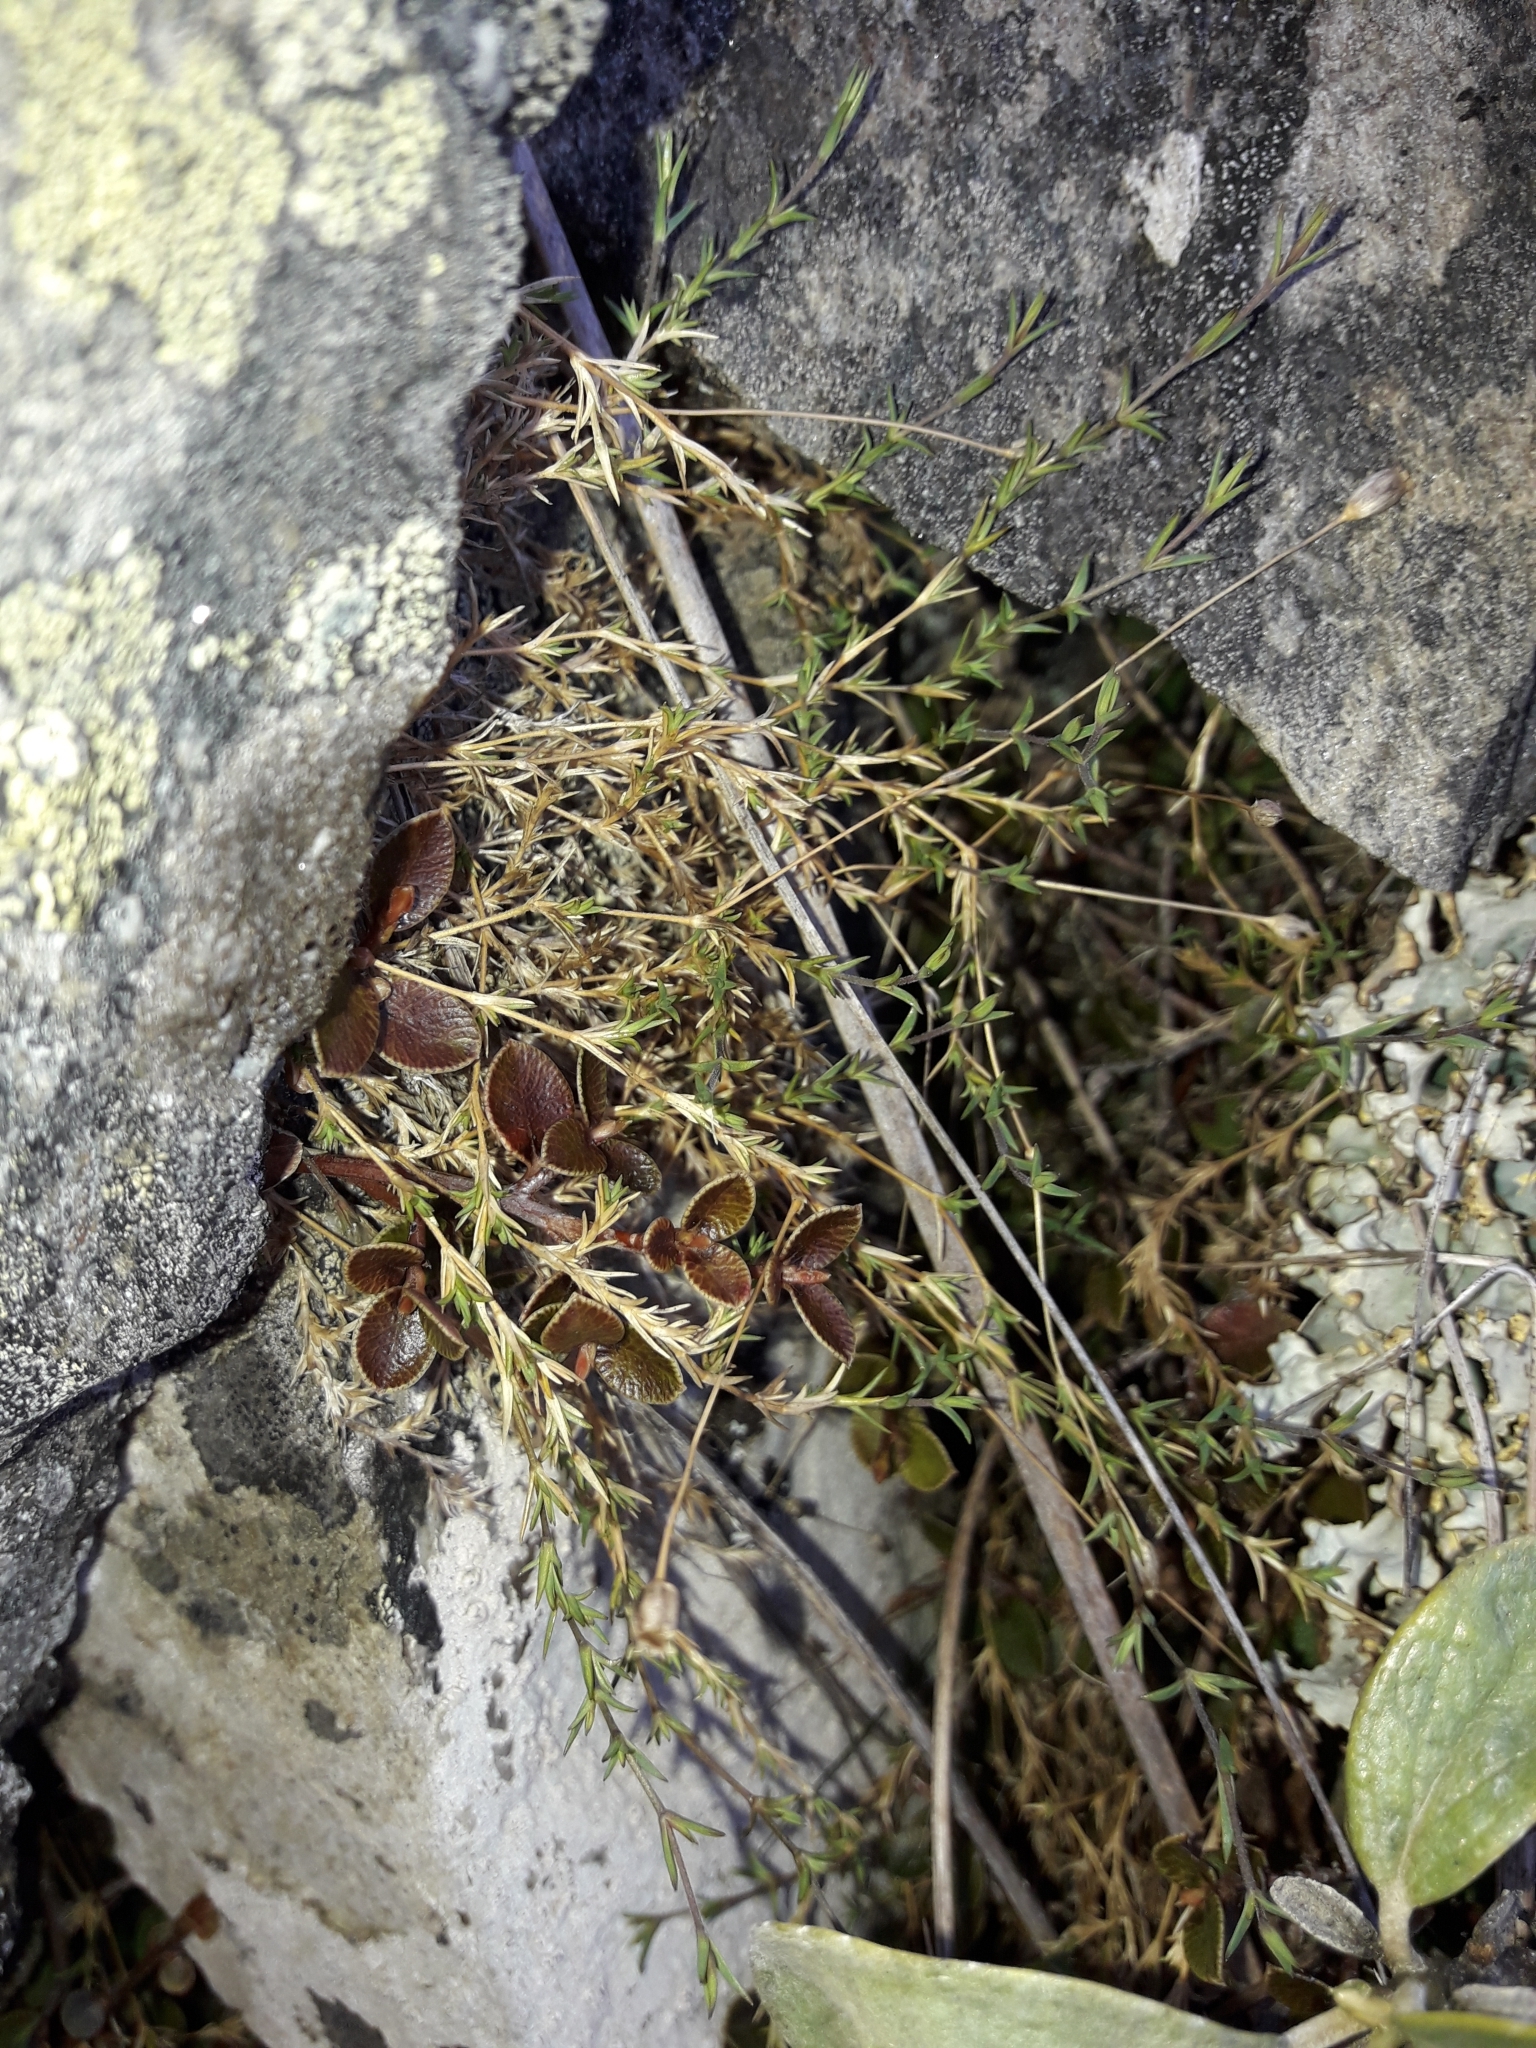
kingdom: Plantae
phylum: Tracheophyta
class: Magnoliopsida
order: Caryophyllales
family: Caryophyllaceae
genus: Stellaria
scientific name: Stellaria gracilenta
